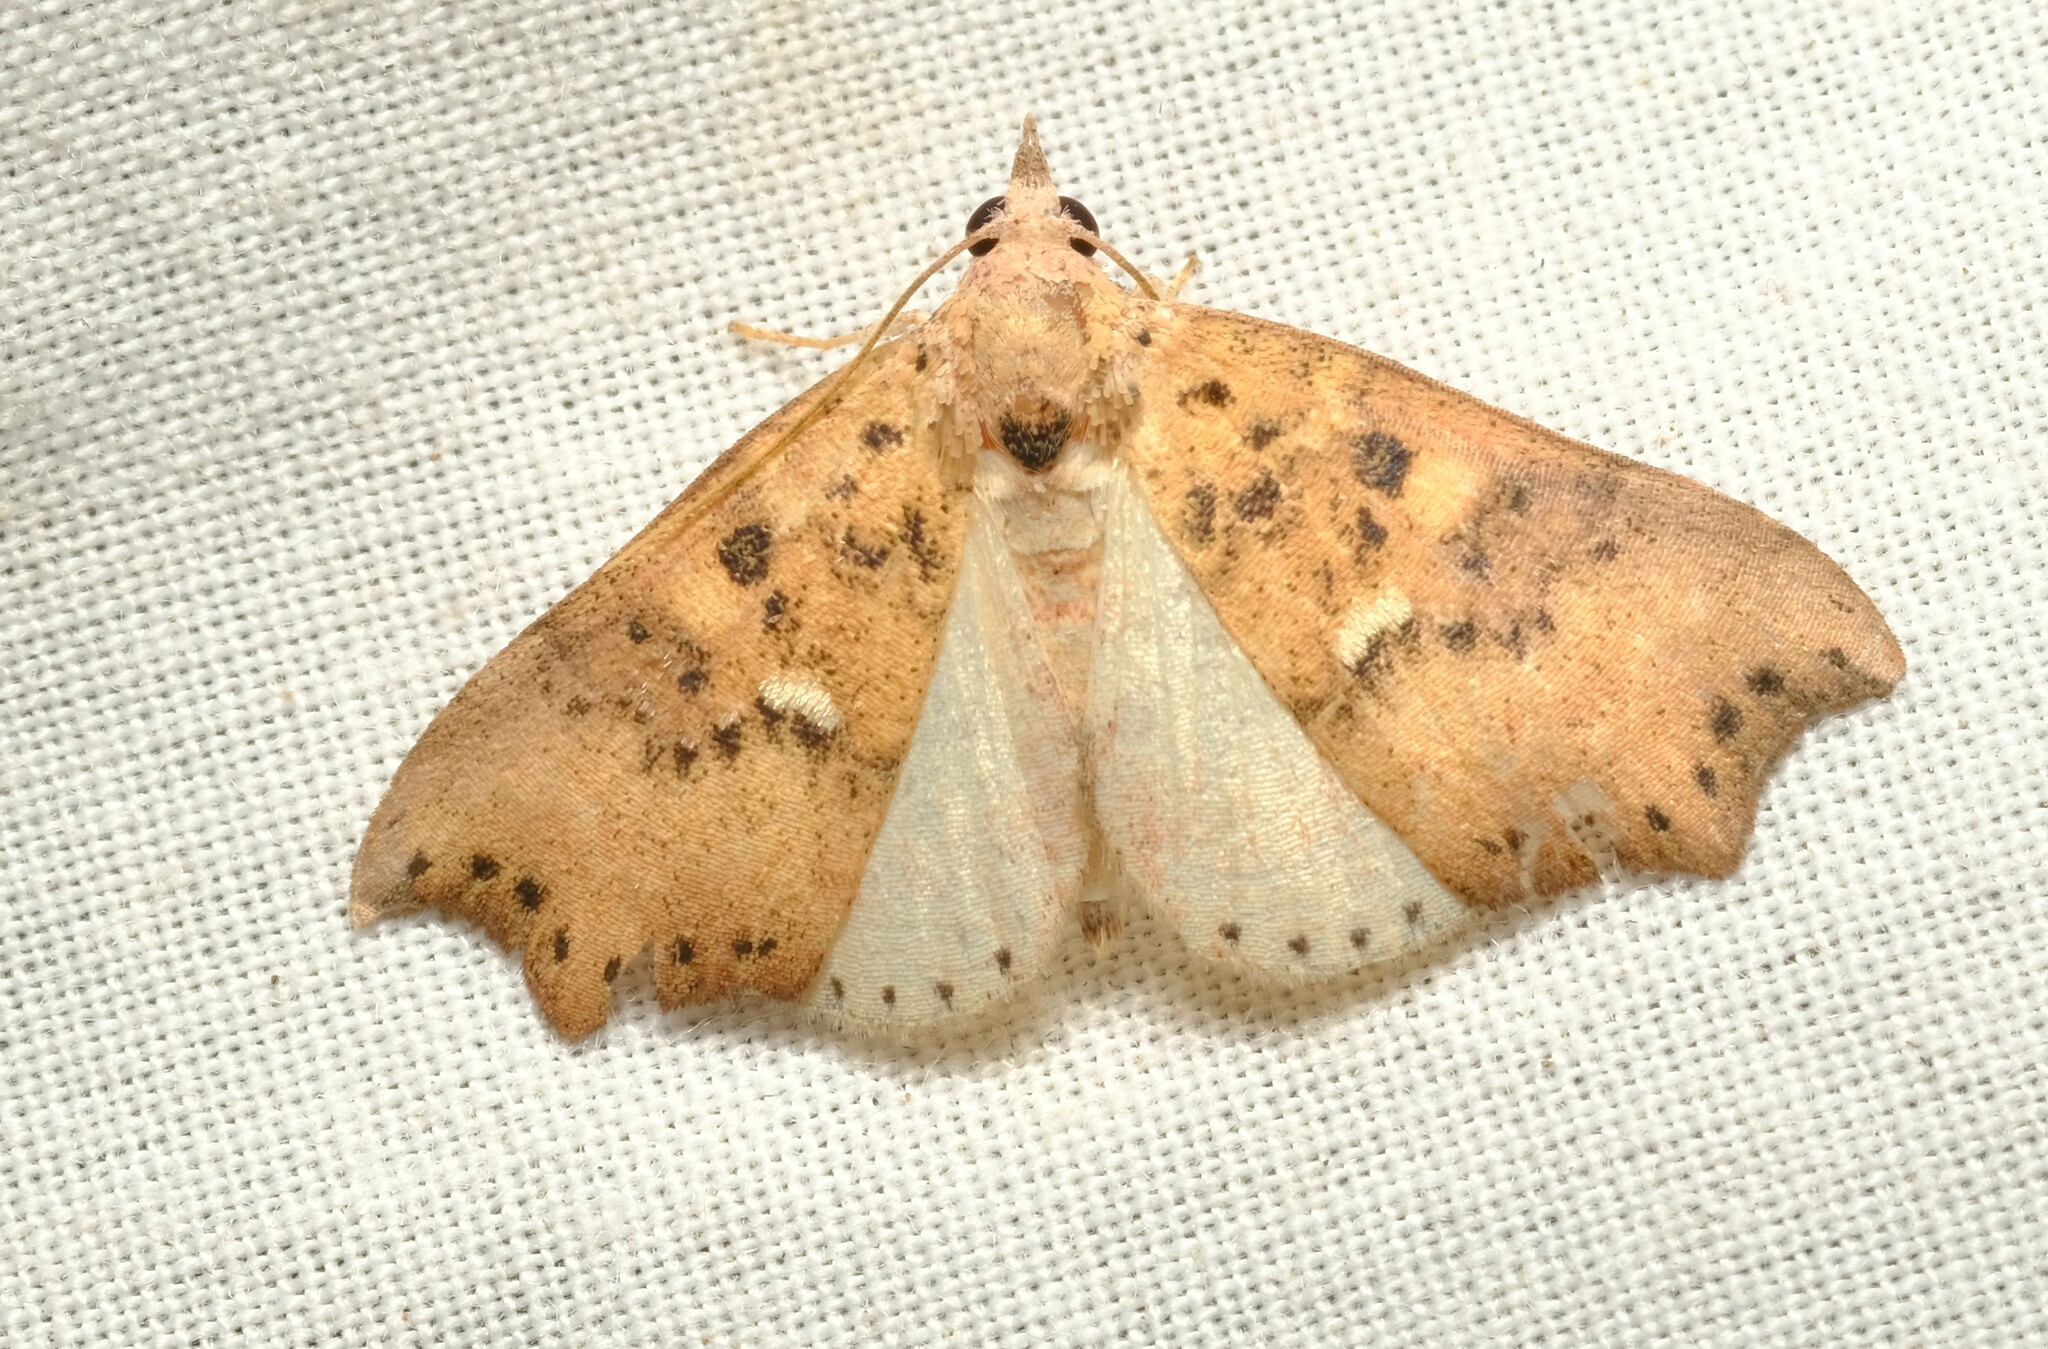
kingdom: Animalia
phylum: Arthropoda
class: Insecta
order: Lepidoptera
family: Erebidae
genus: Axiocteta
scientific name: Axiocteta oenoplex
